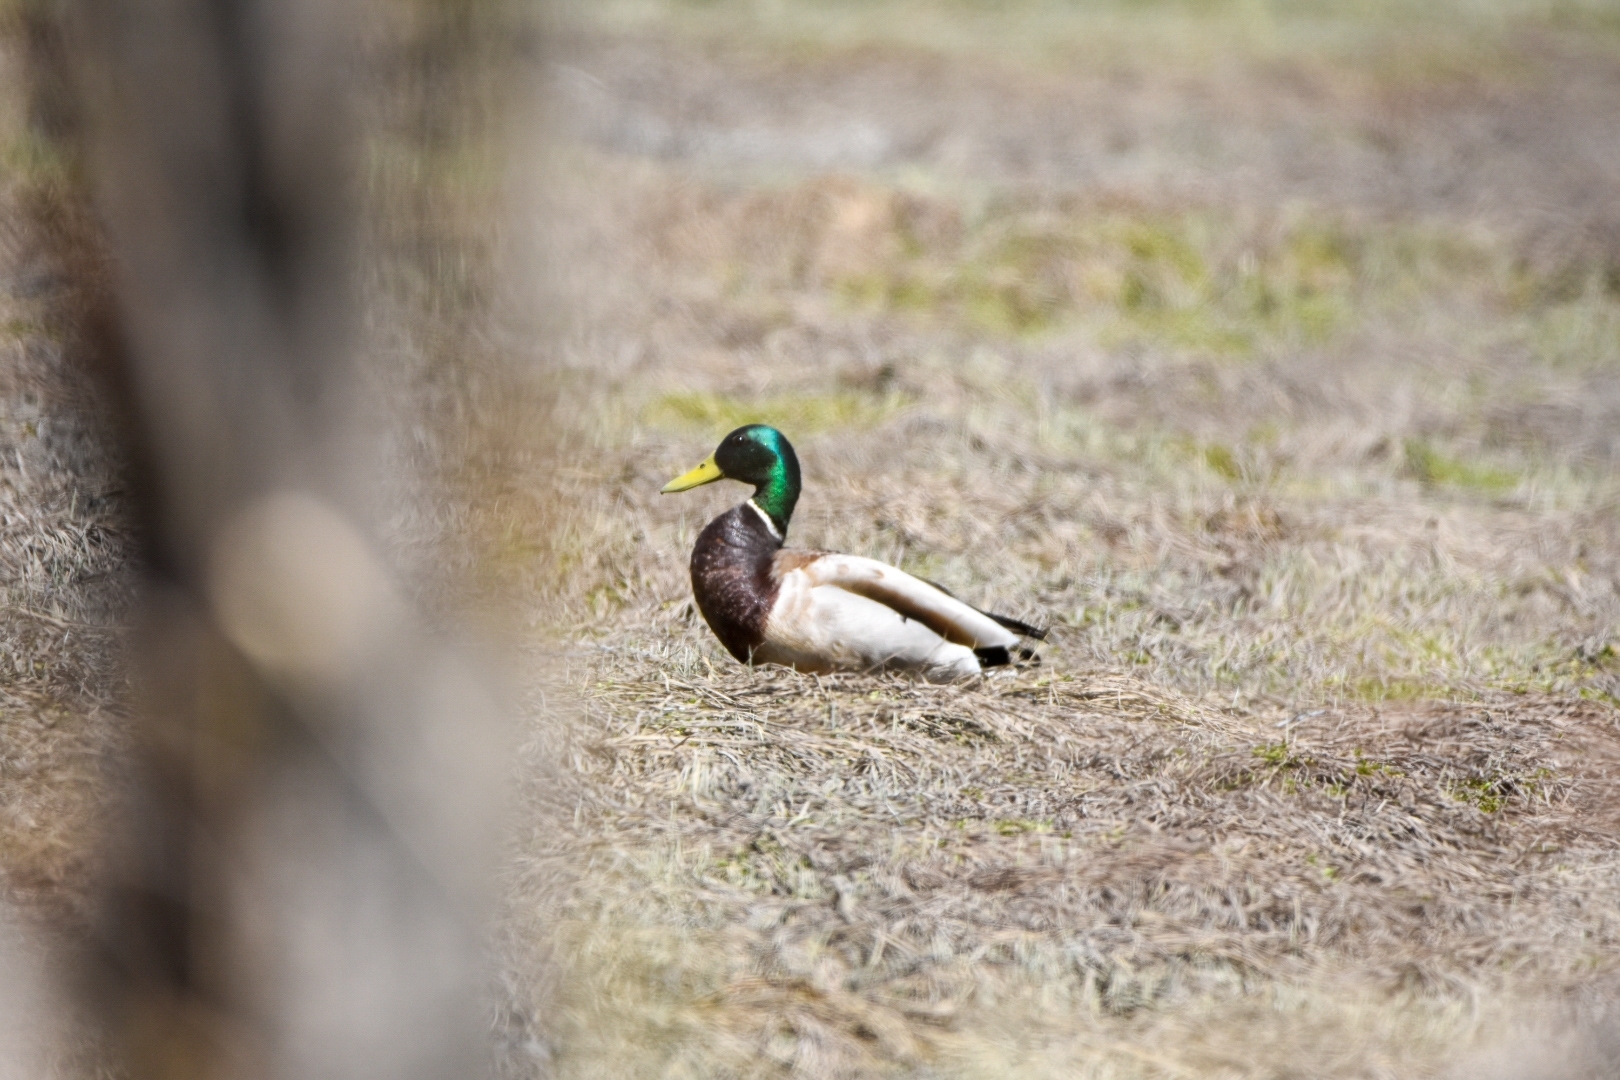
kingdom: Animalia
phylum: Chordata
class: Aves
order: Anseriformes
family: Anatidae
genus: Anas
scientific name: Anas platyrhynchos
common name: Mallard
